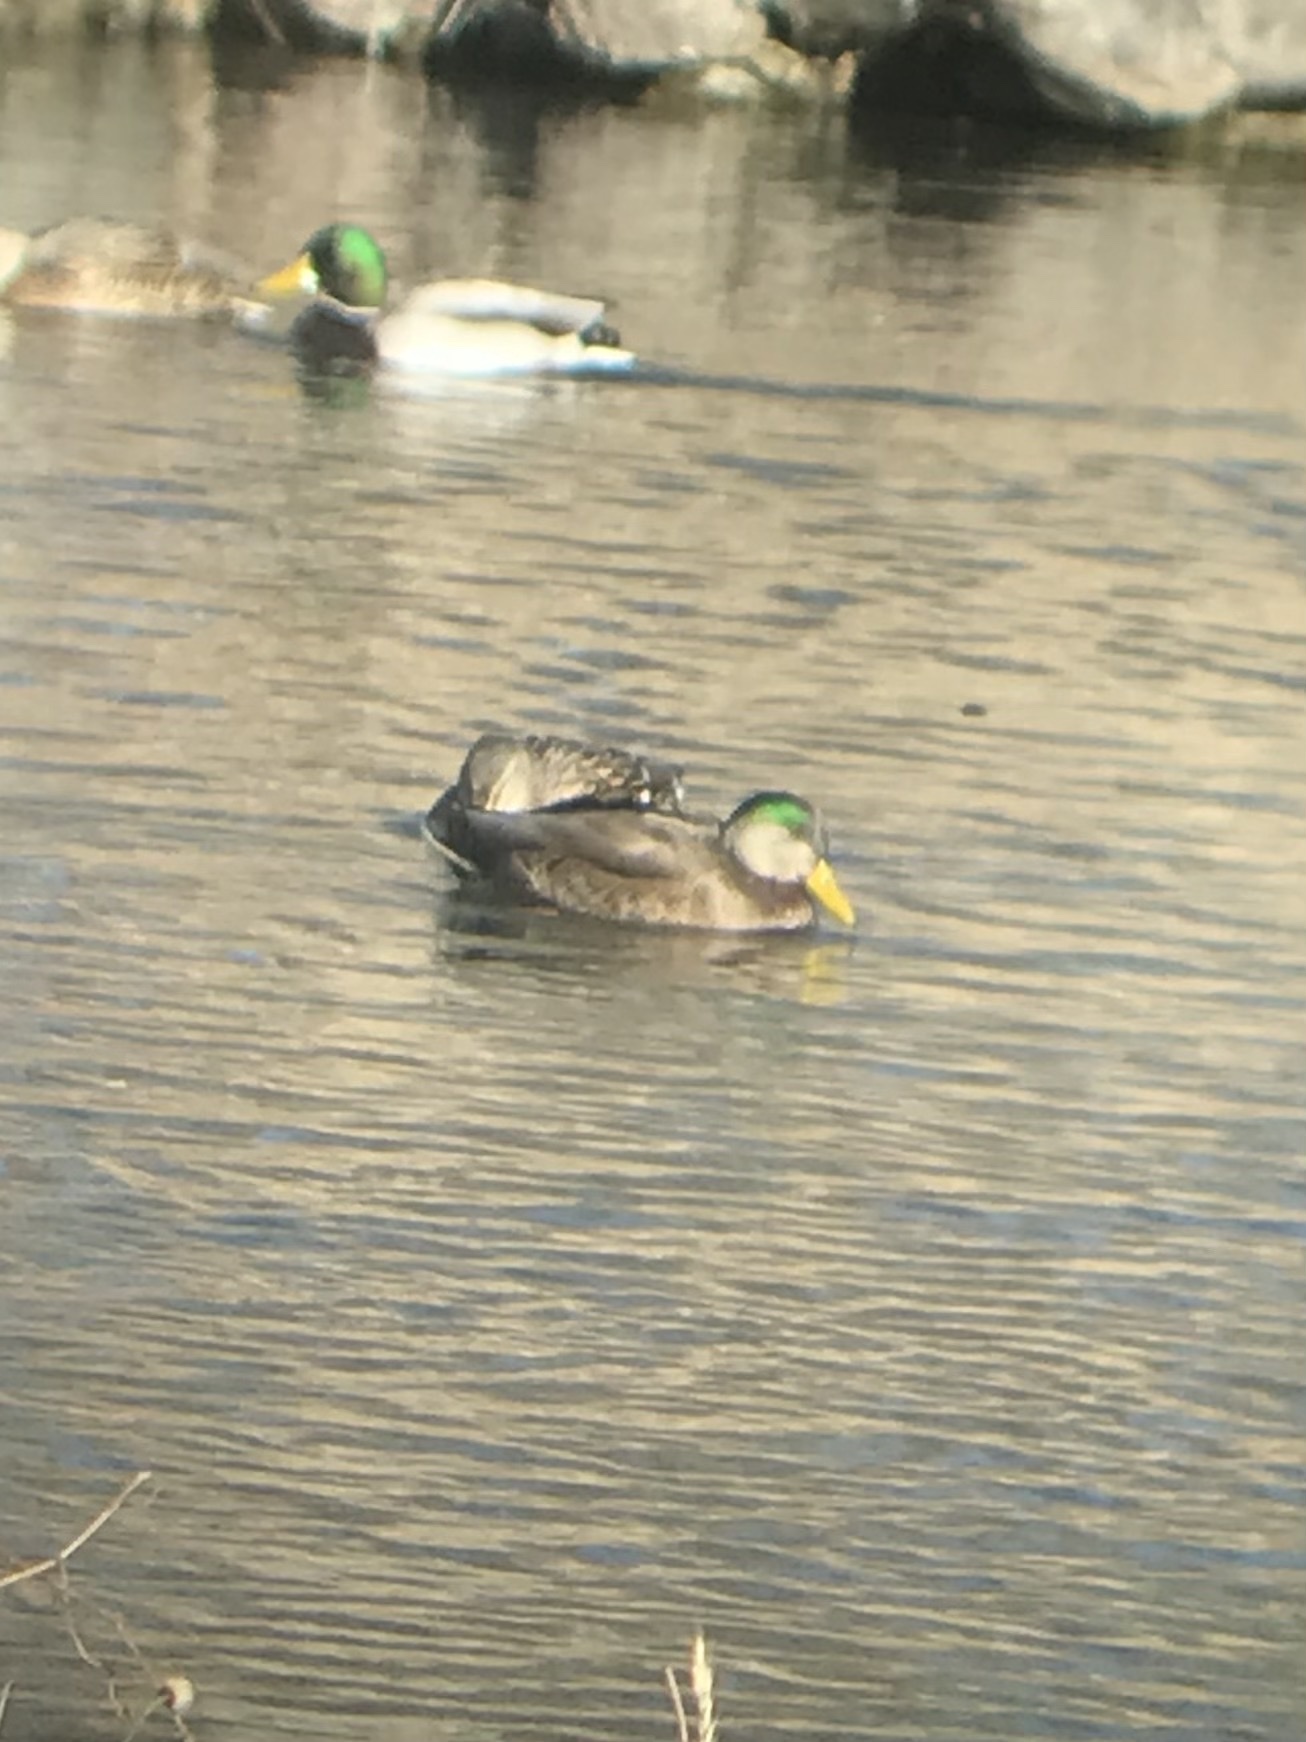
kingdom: Animalia
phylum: Chordata
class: Aves
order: Anseriformes
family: Anatidae
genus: Anas
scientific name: Anas
